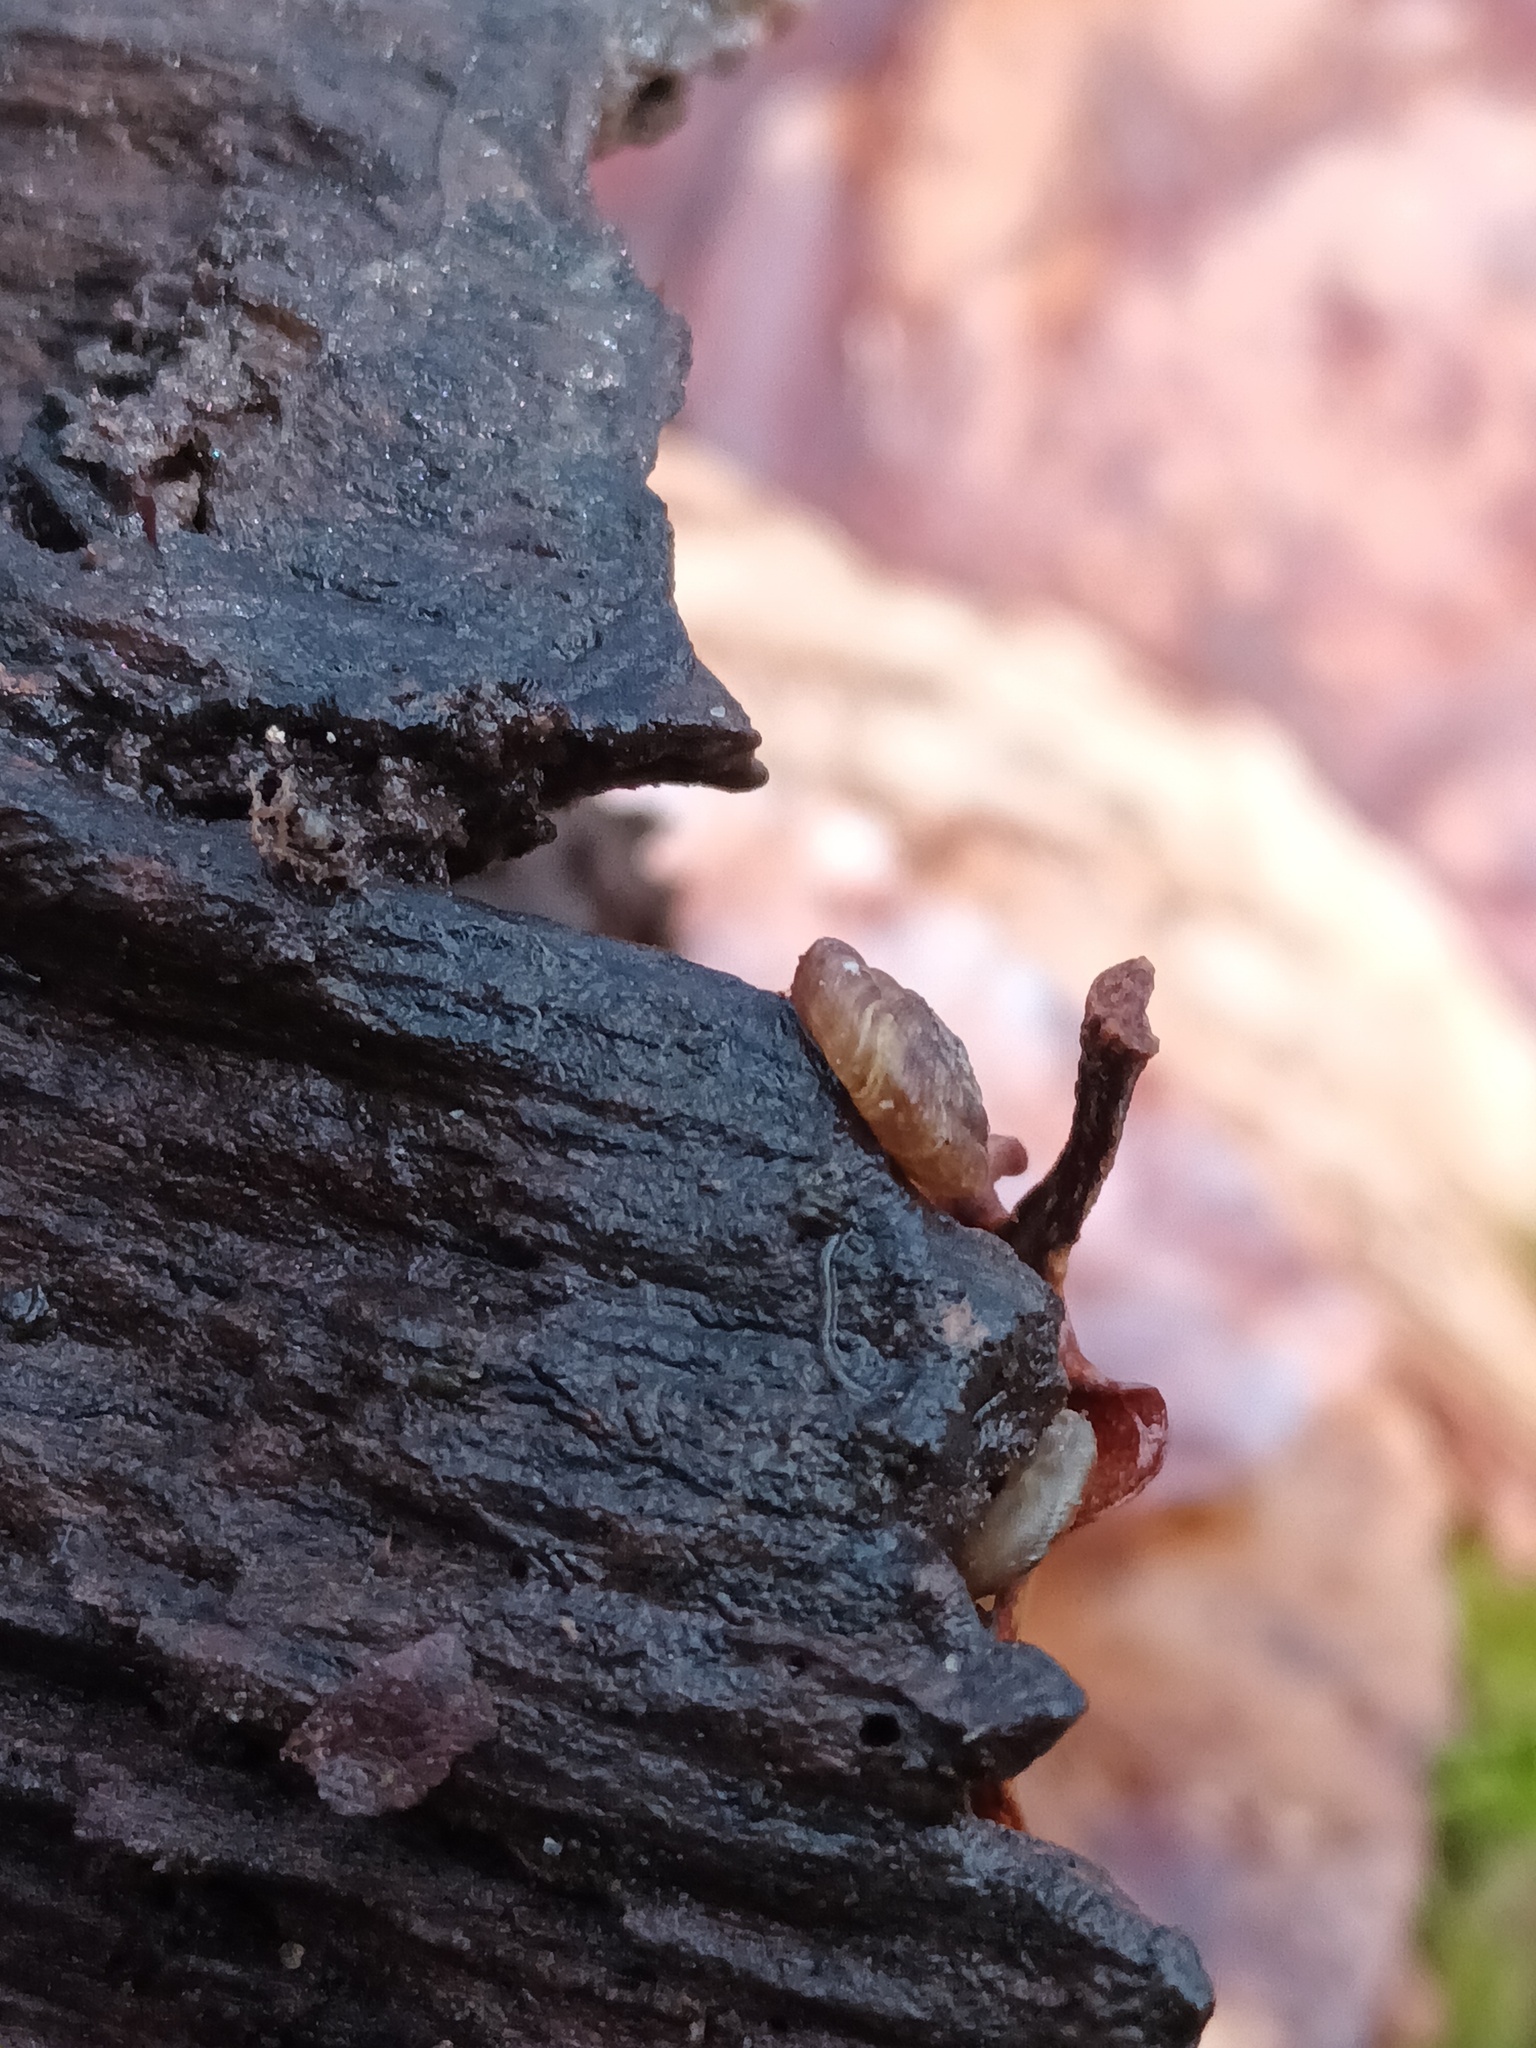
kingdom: Animalia
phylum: Mollusca
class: Gastropoda
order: Stylommatophora
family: Discidae
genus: Discus
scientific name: Discus rotundatus
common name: Rounded snail
